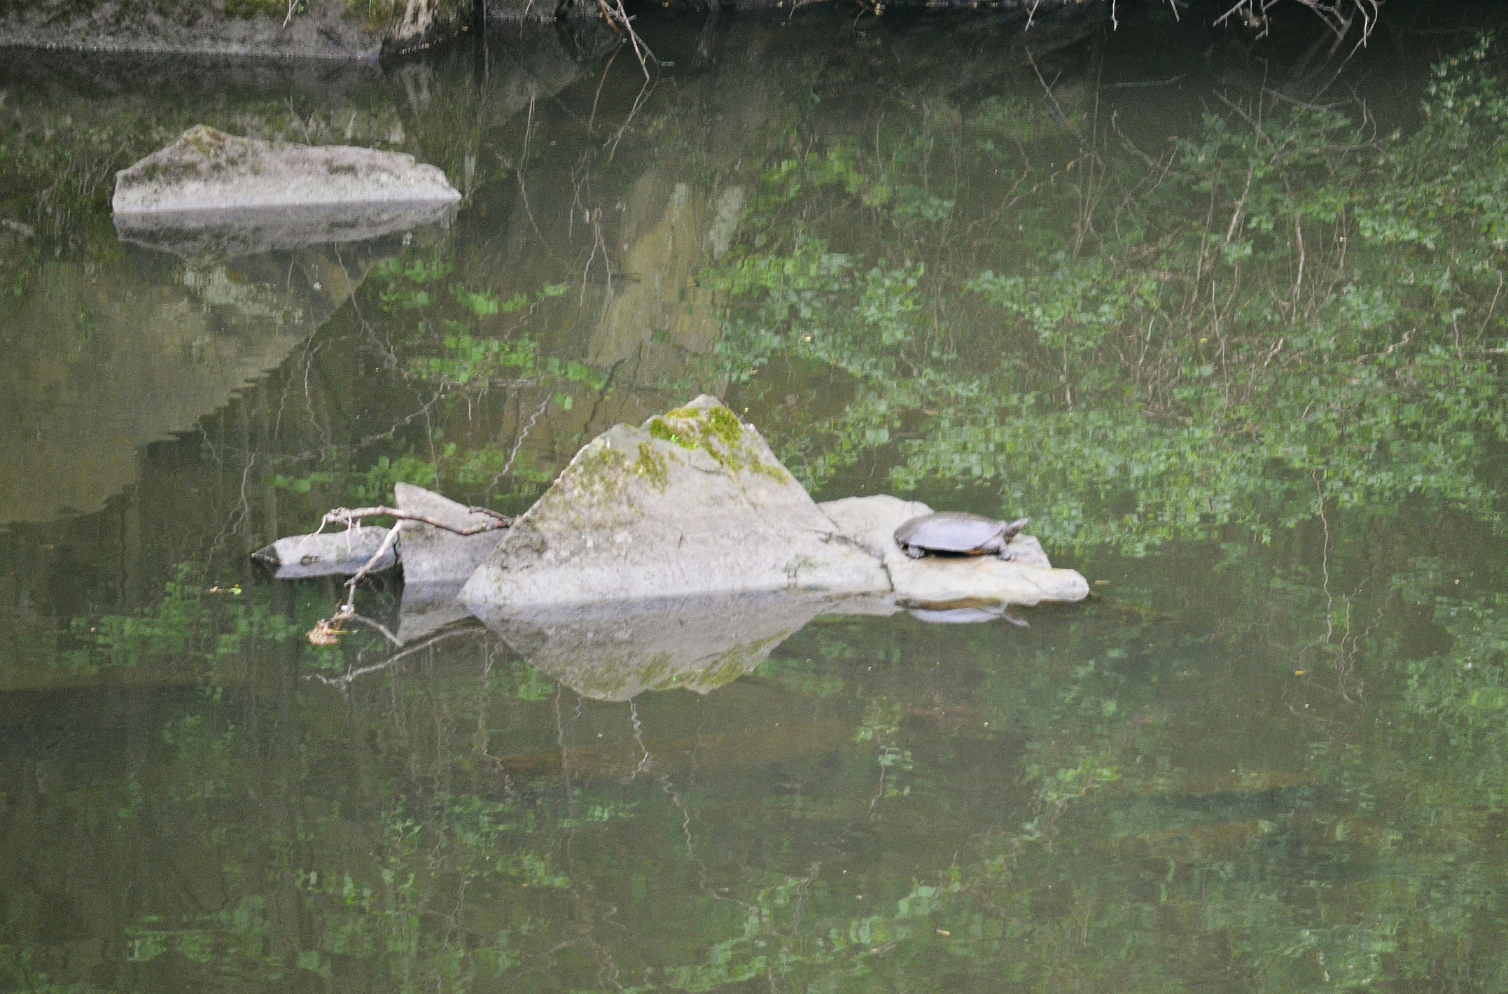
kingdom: Animalia
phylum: Chordata
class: Testudines
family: Trionychidae
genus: Apalone
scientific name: Apalone spinifera
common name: Spiny softshell turtle
